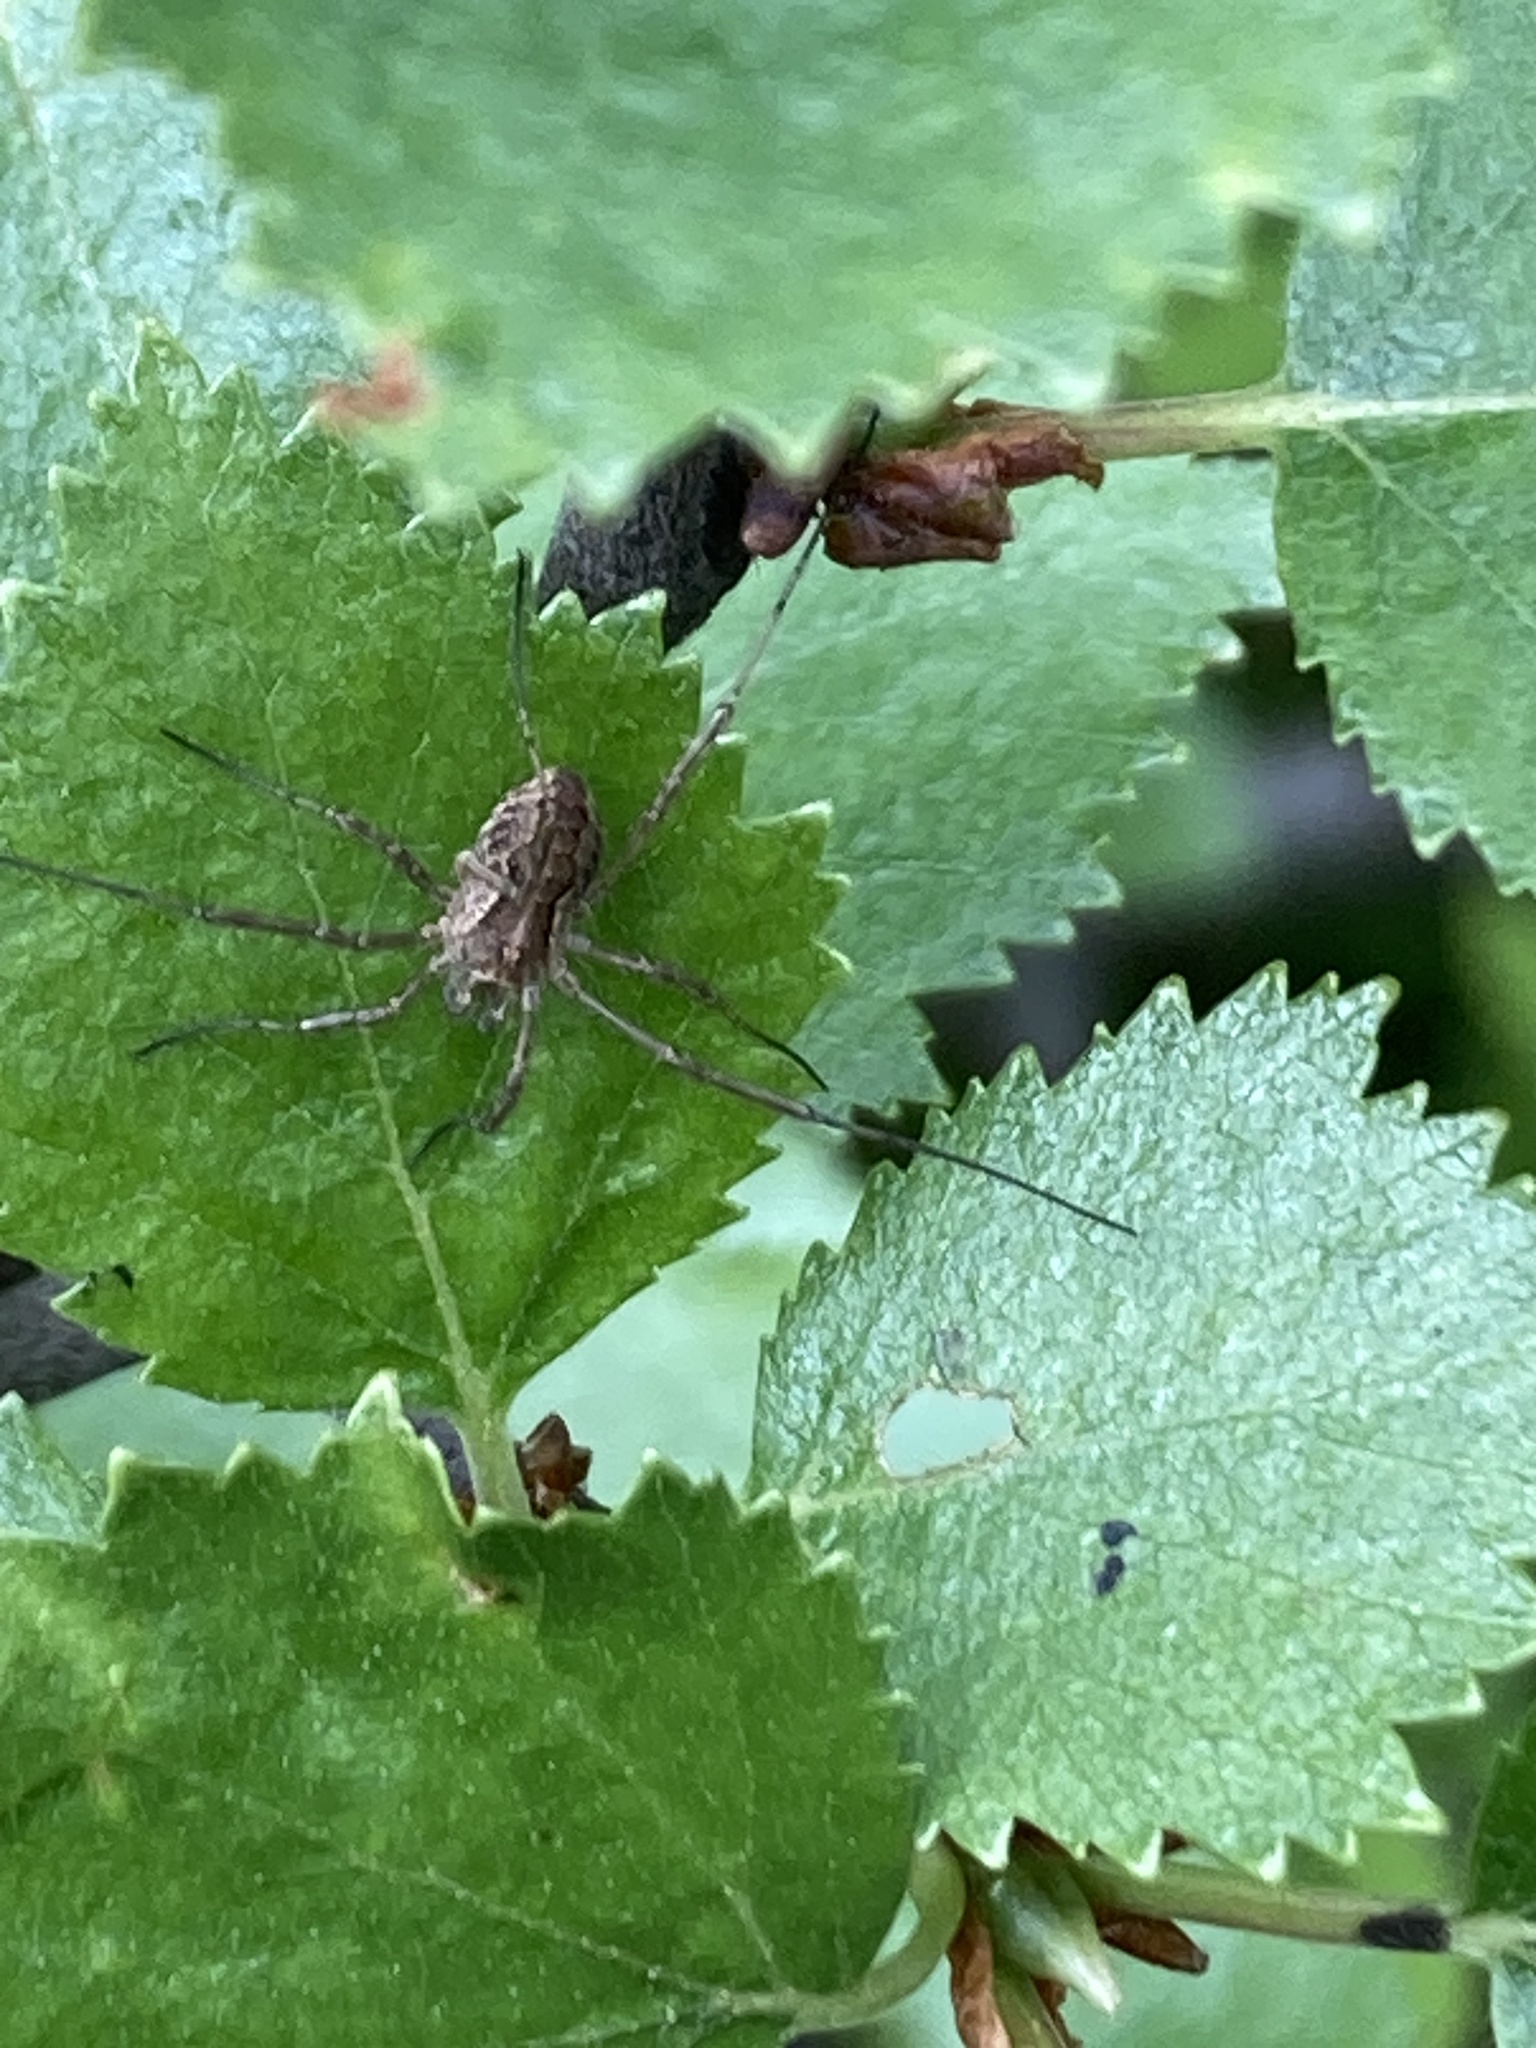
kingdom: Animalia
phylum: Arthropoda
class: Arachnida
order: Opiliones
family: Phalangiidae
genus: Mitopus
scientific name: Mitopus morio
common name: Saddleback harvestman
